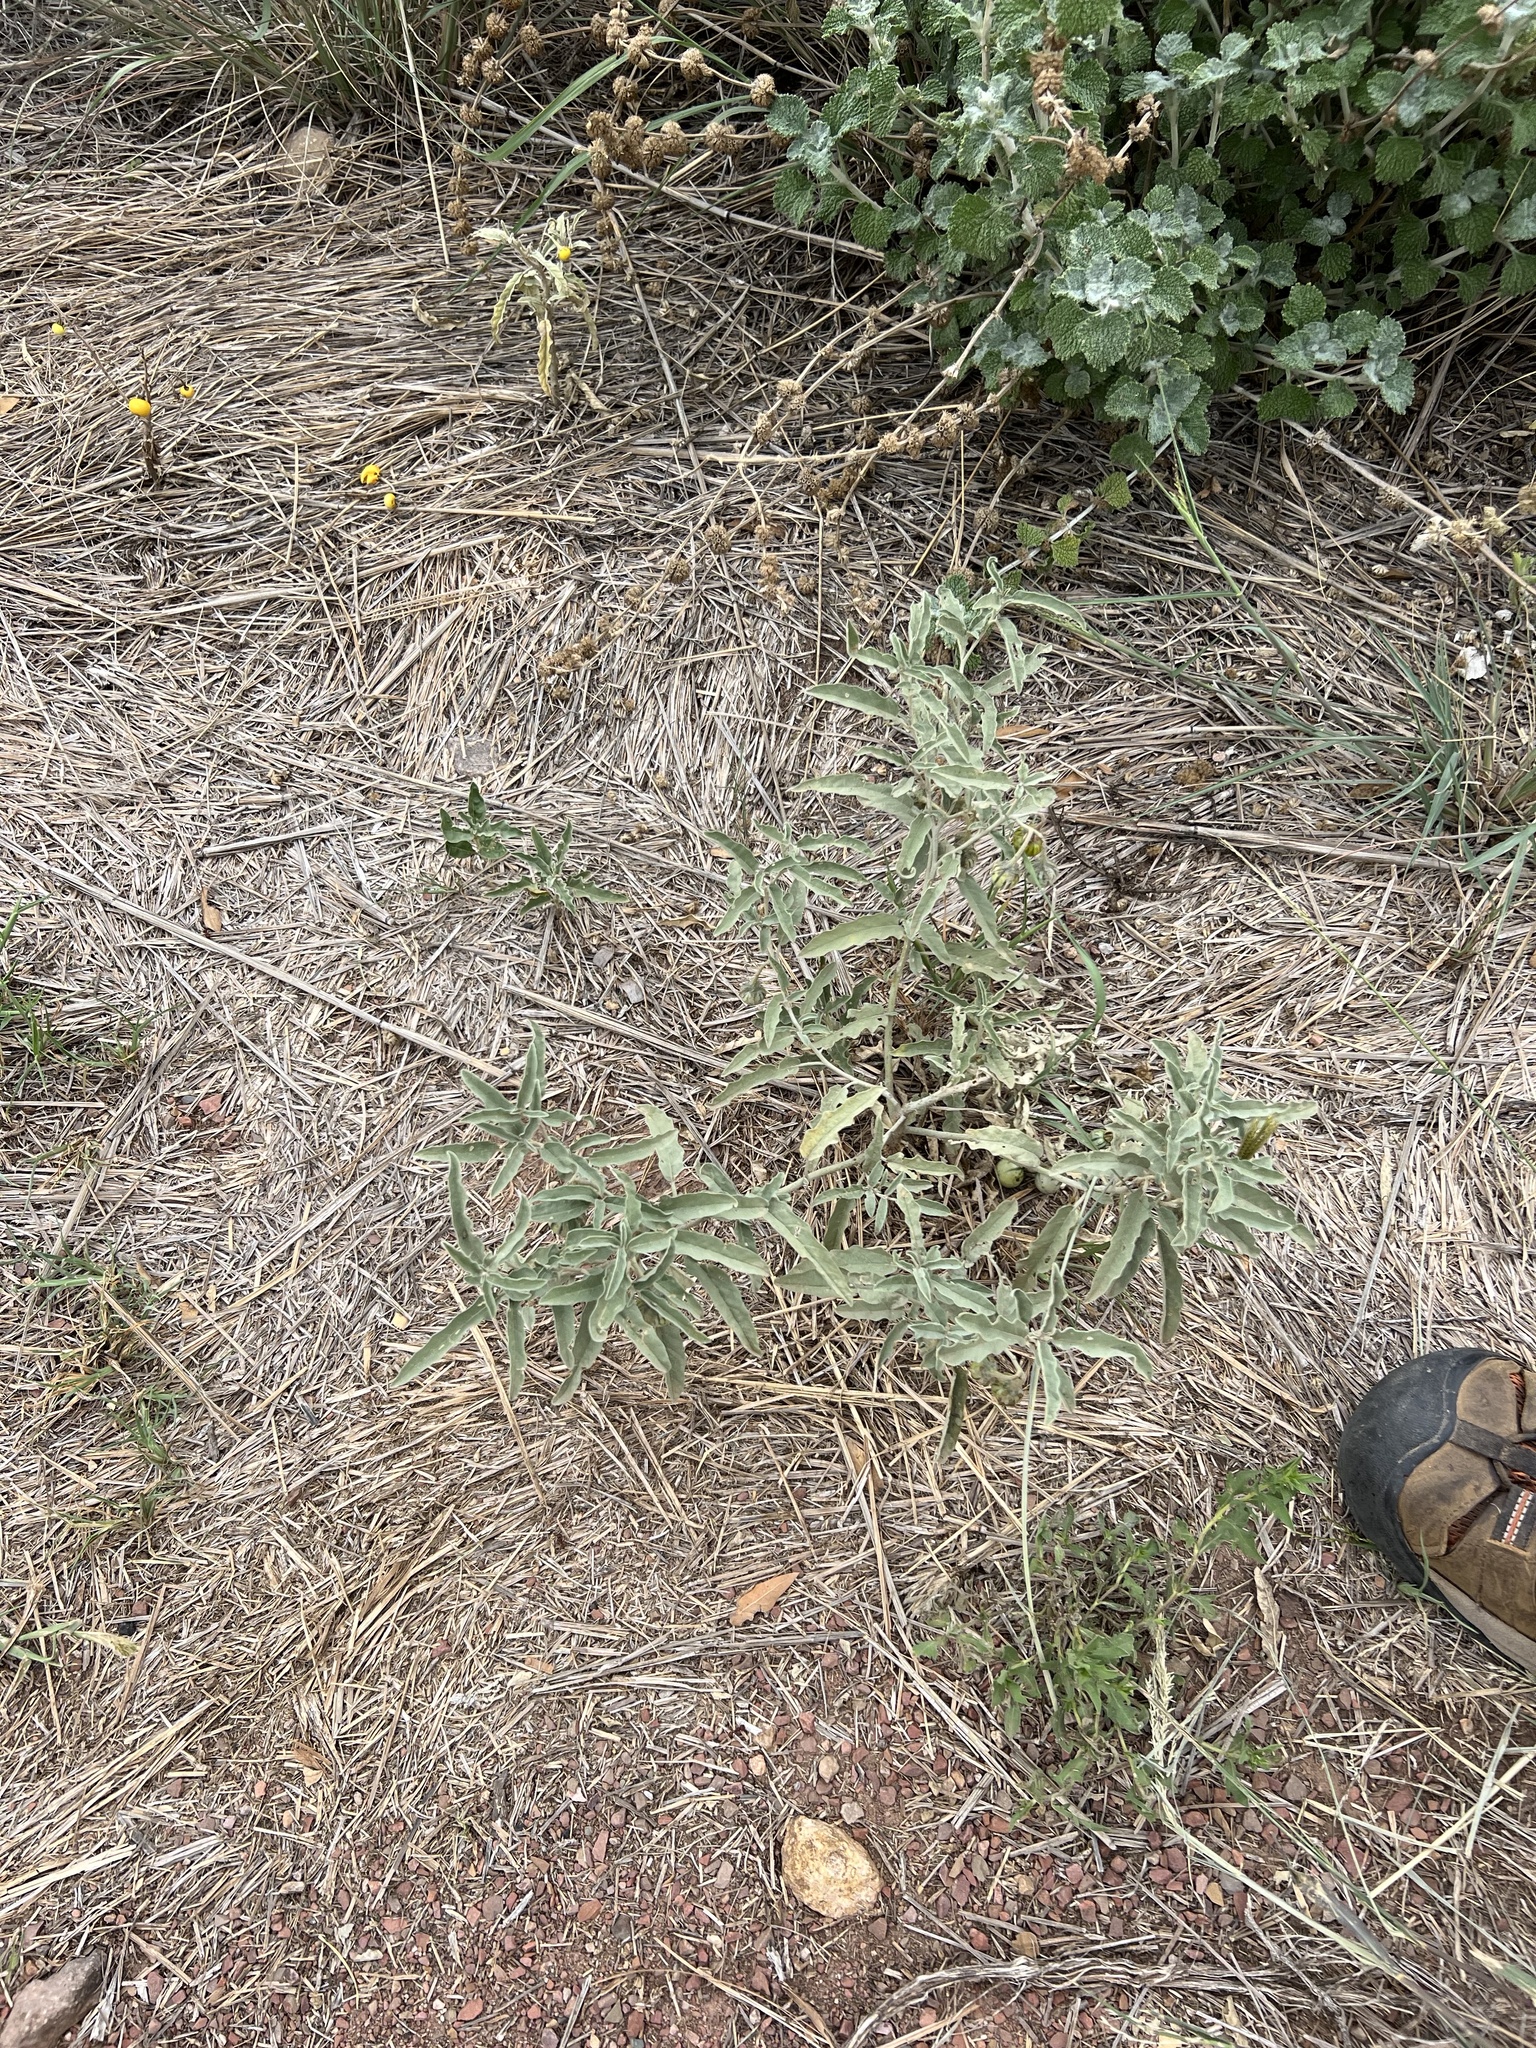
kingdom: Plantae
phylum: Tracheophyta
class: Magnoliopsida
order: Solanales
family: Solanaceae
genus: Solanum
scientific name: Solanum elaeagnifolium
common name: Silverleaf nightshade
